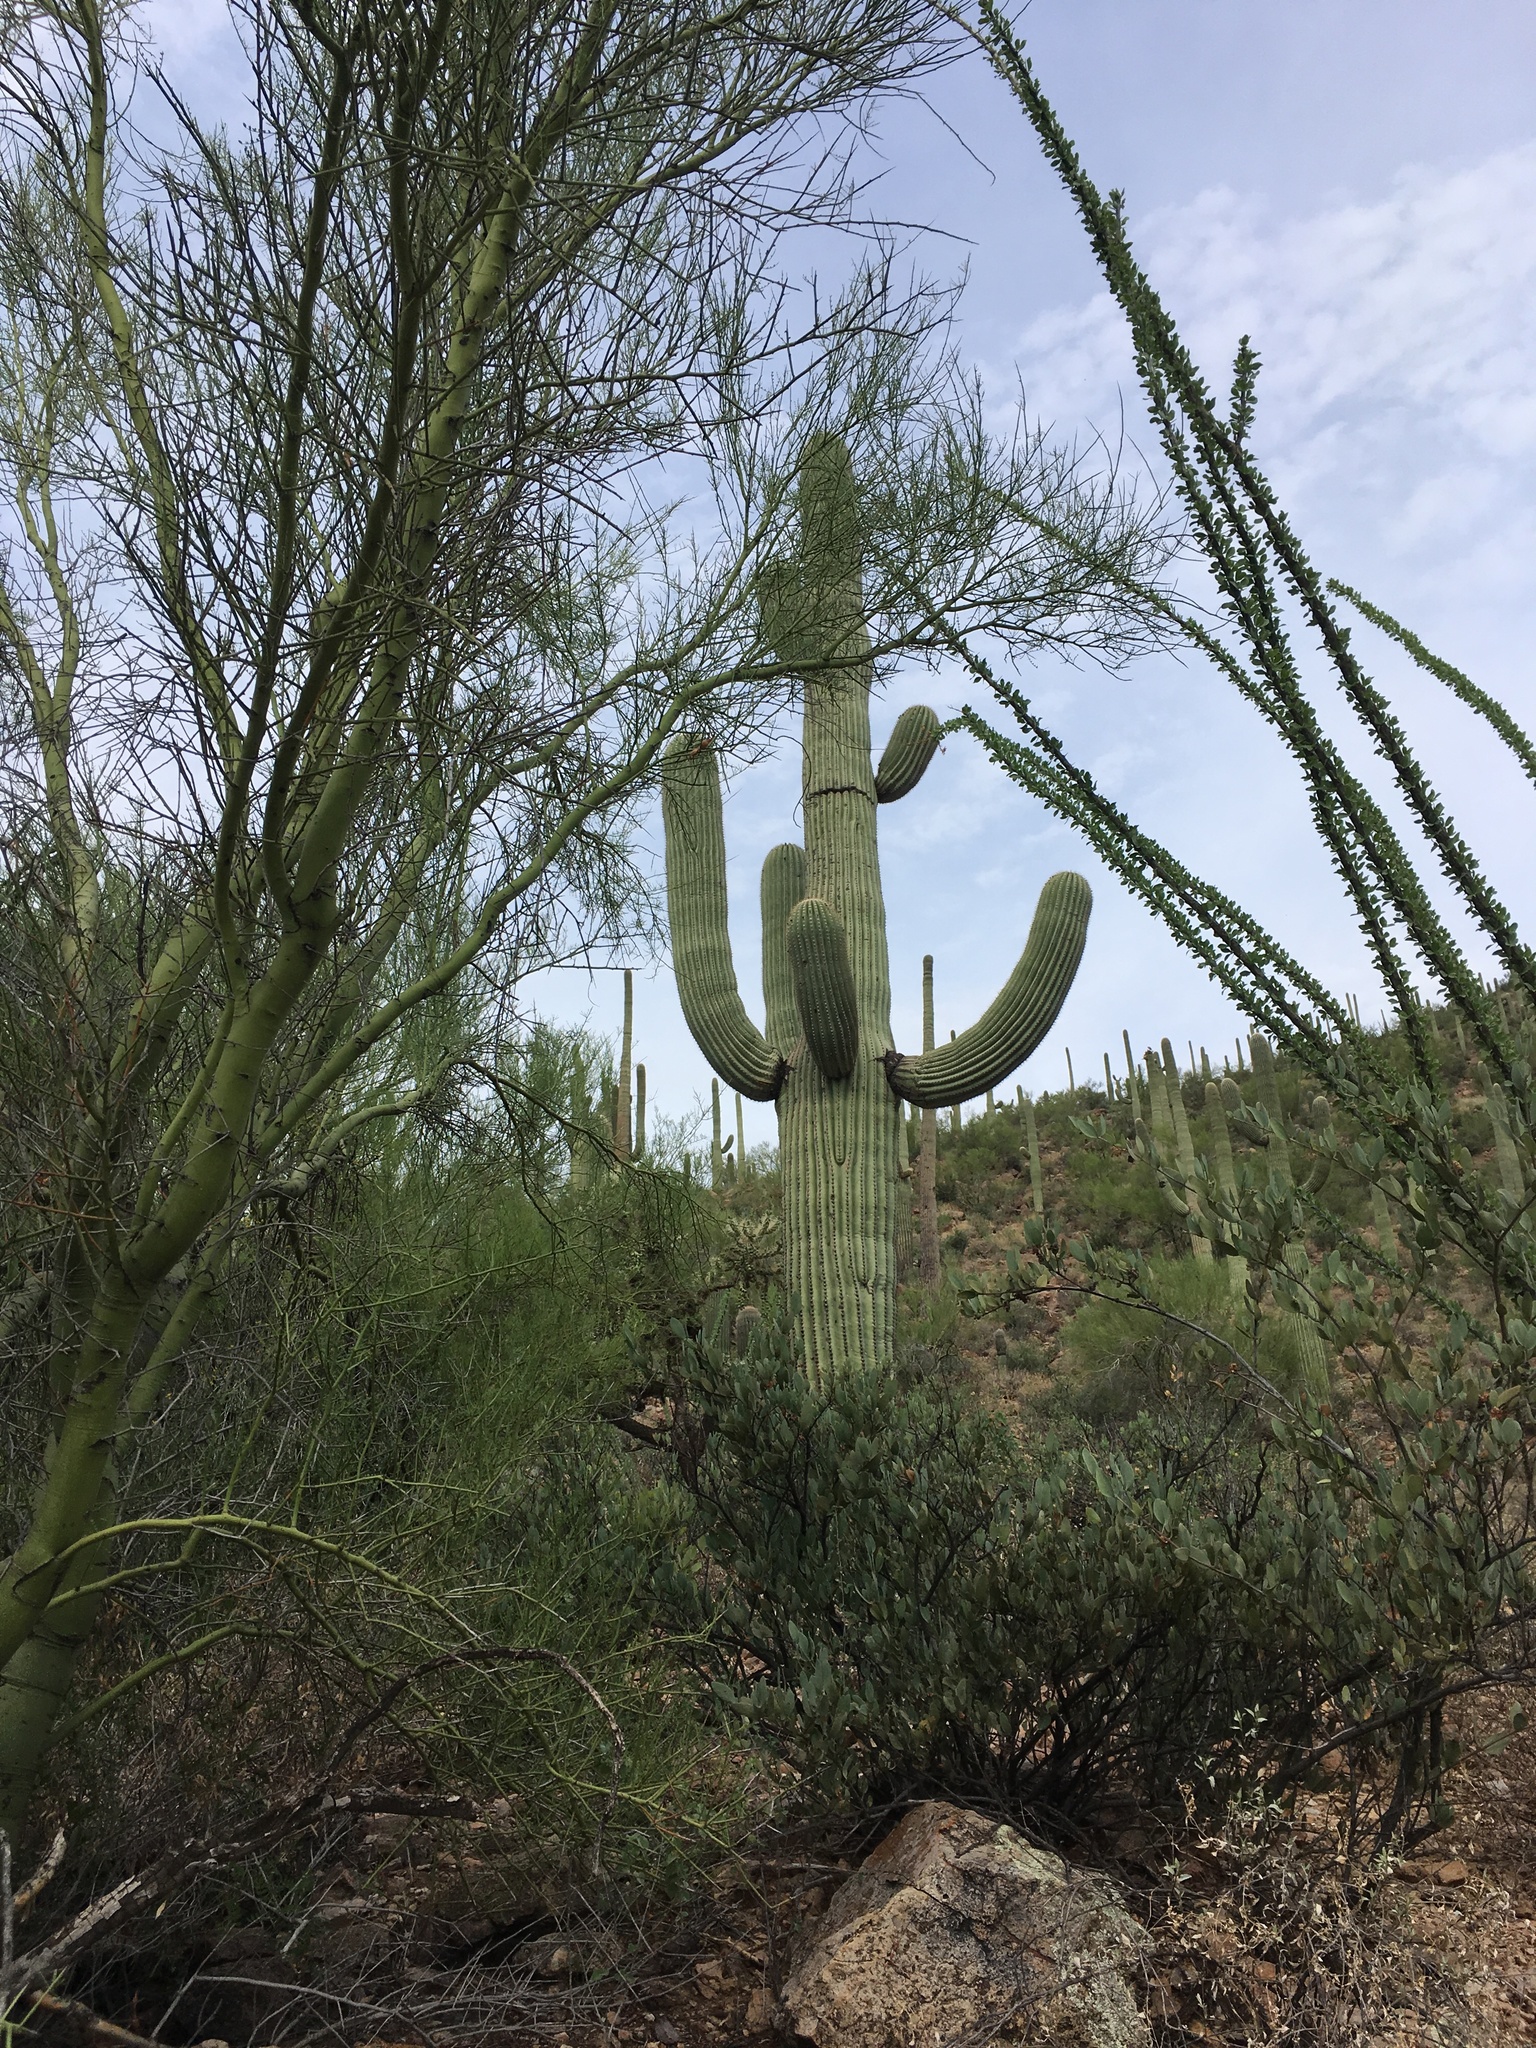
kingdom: Plantae
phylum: Tracheophyta
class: Magnoliopsida
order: Ericales
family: Fouquieriaceae
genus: Fouquieria
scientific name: Fouquieria splendens
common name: Vine-cactus
